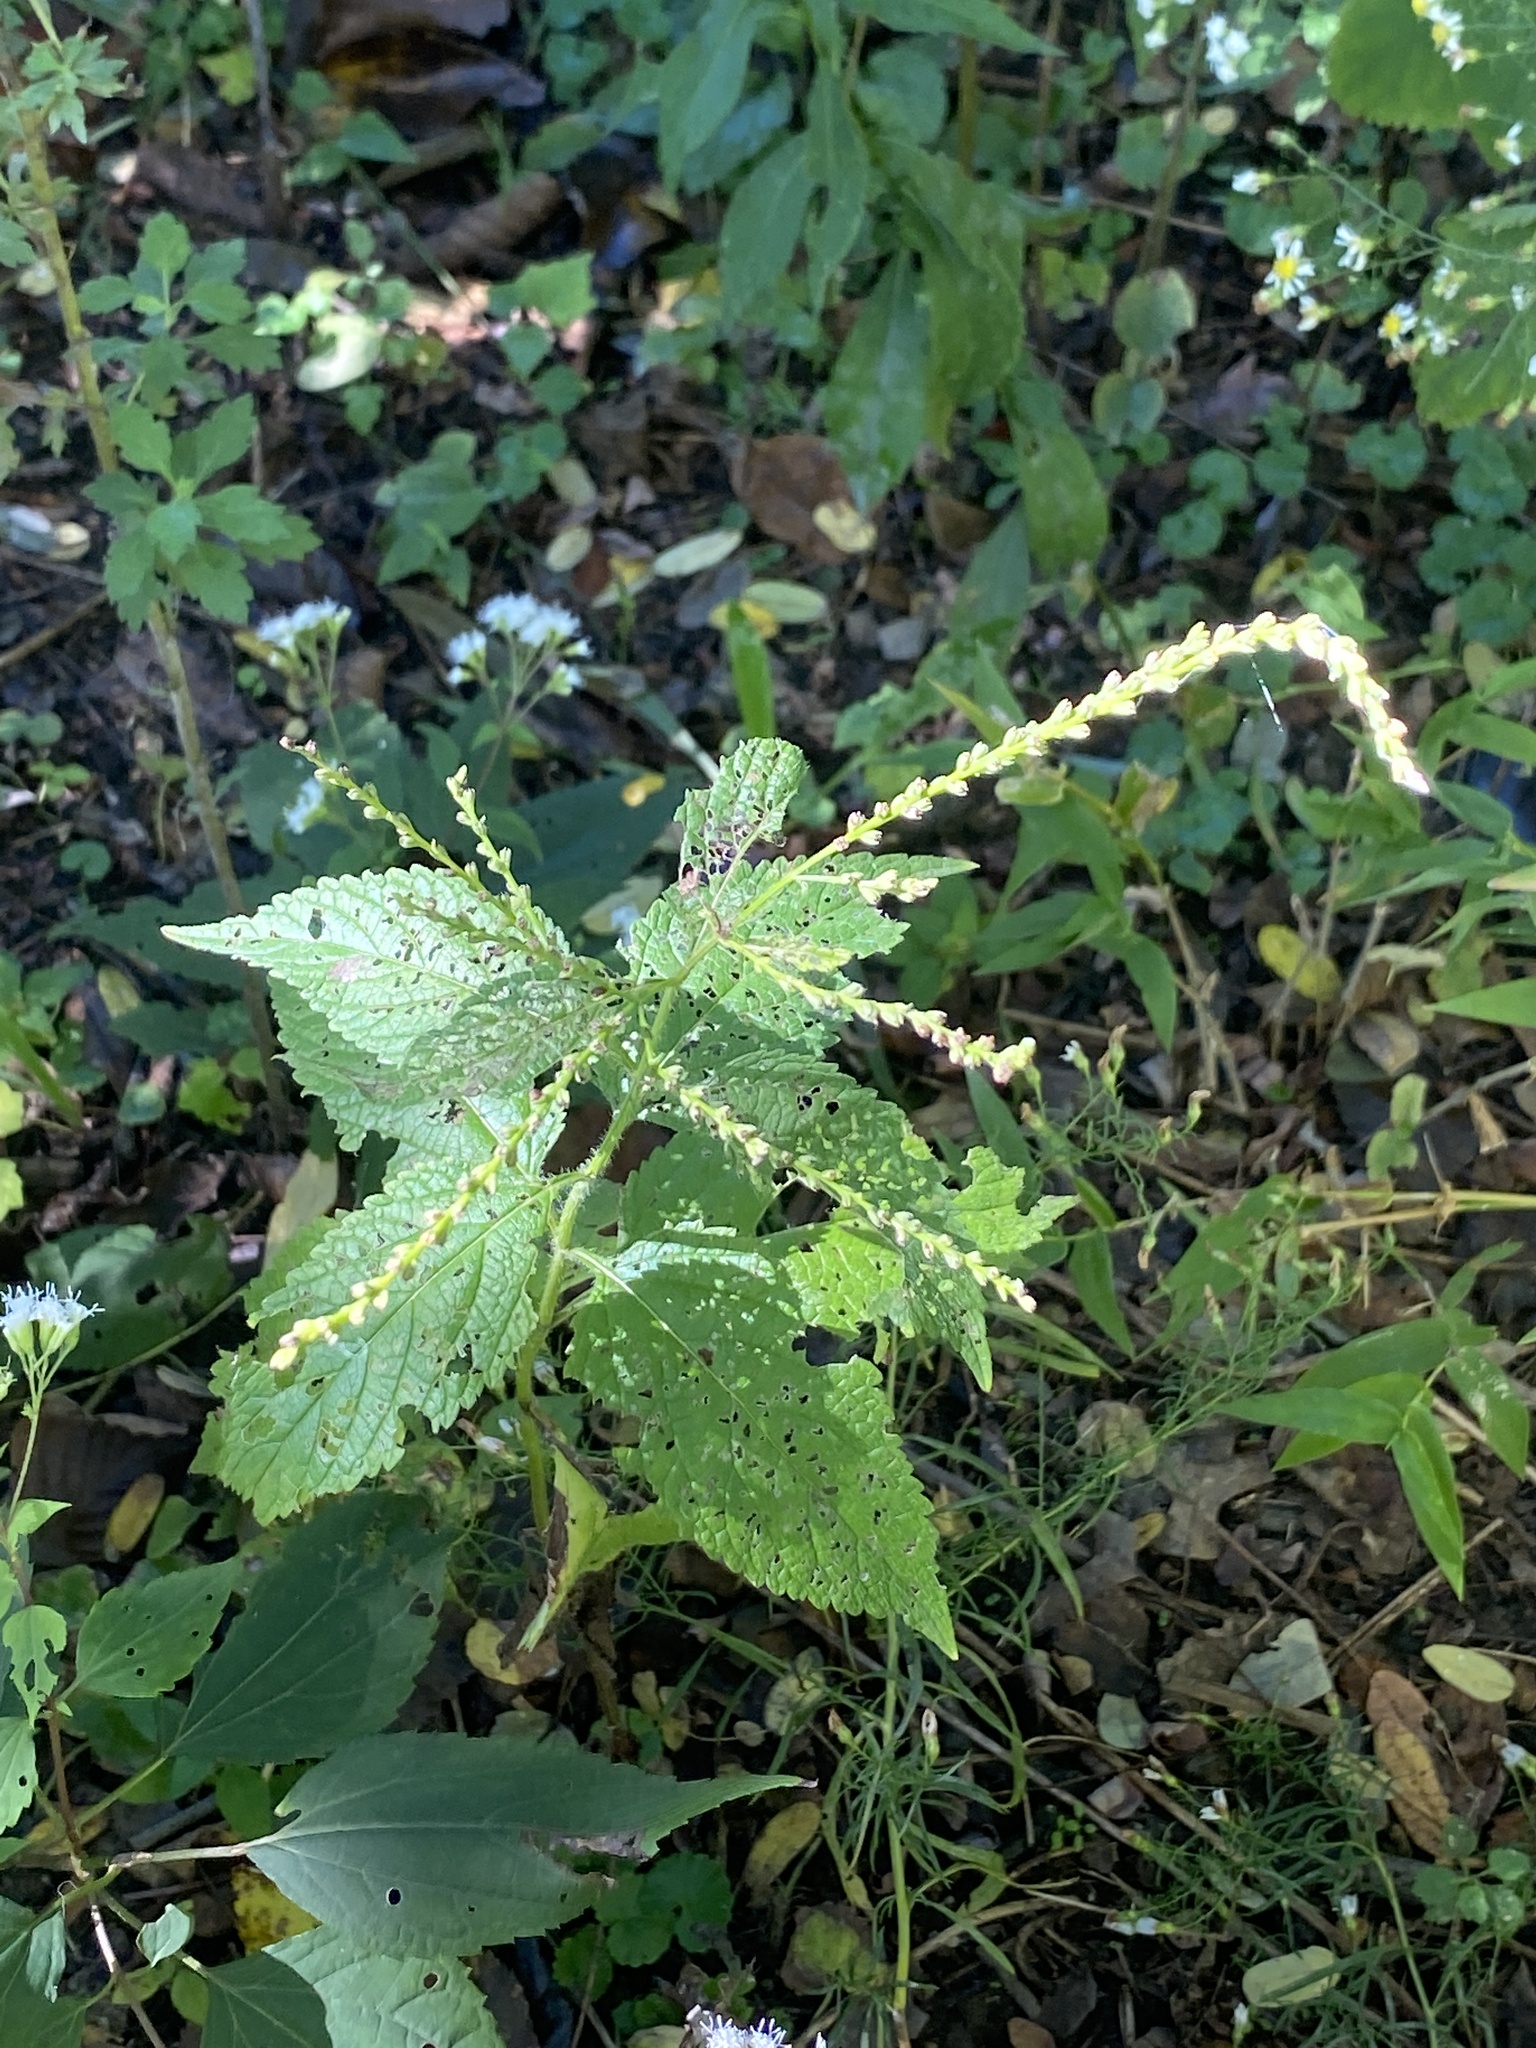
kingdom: Plantae
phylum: Tracheophyta
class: Magnoliopsida
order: Lamiales
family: Verbenaceae
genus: Verbena
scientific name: Verbena urticifolia
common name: Nettle-leaved vervain
